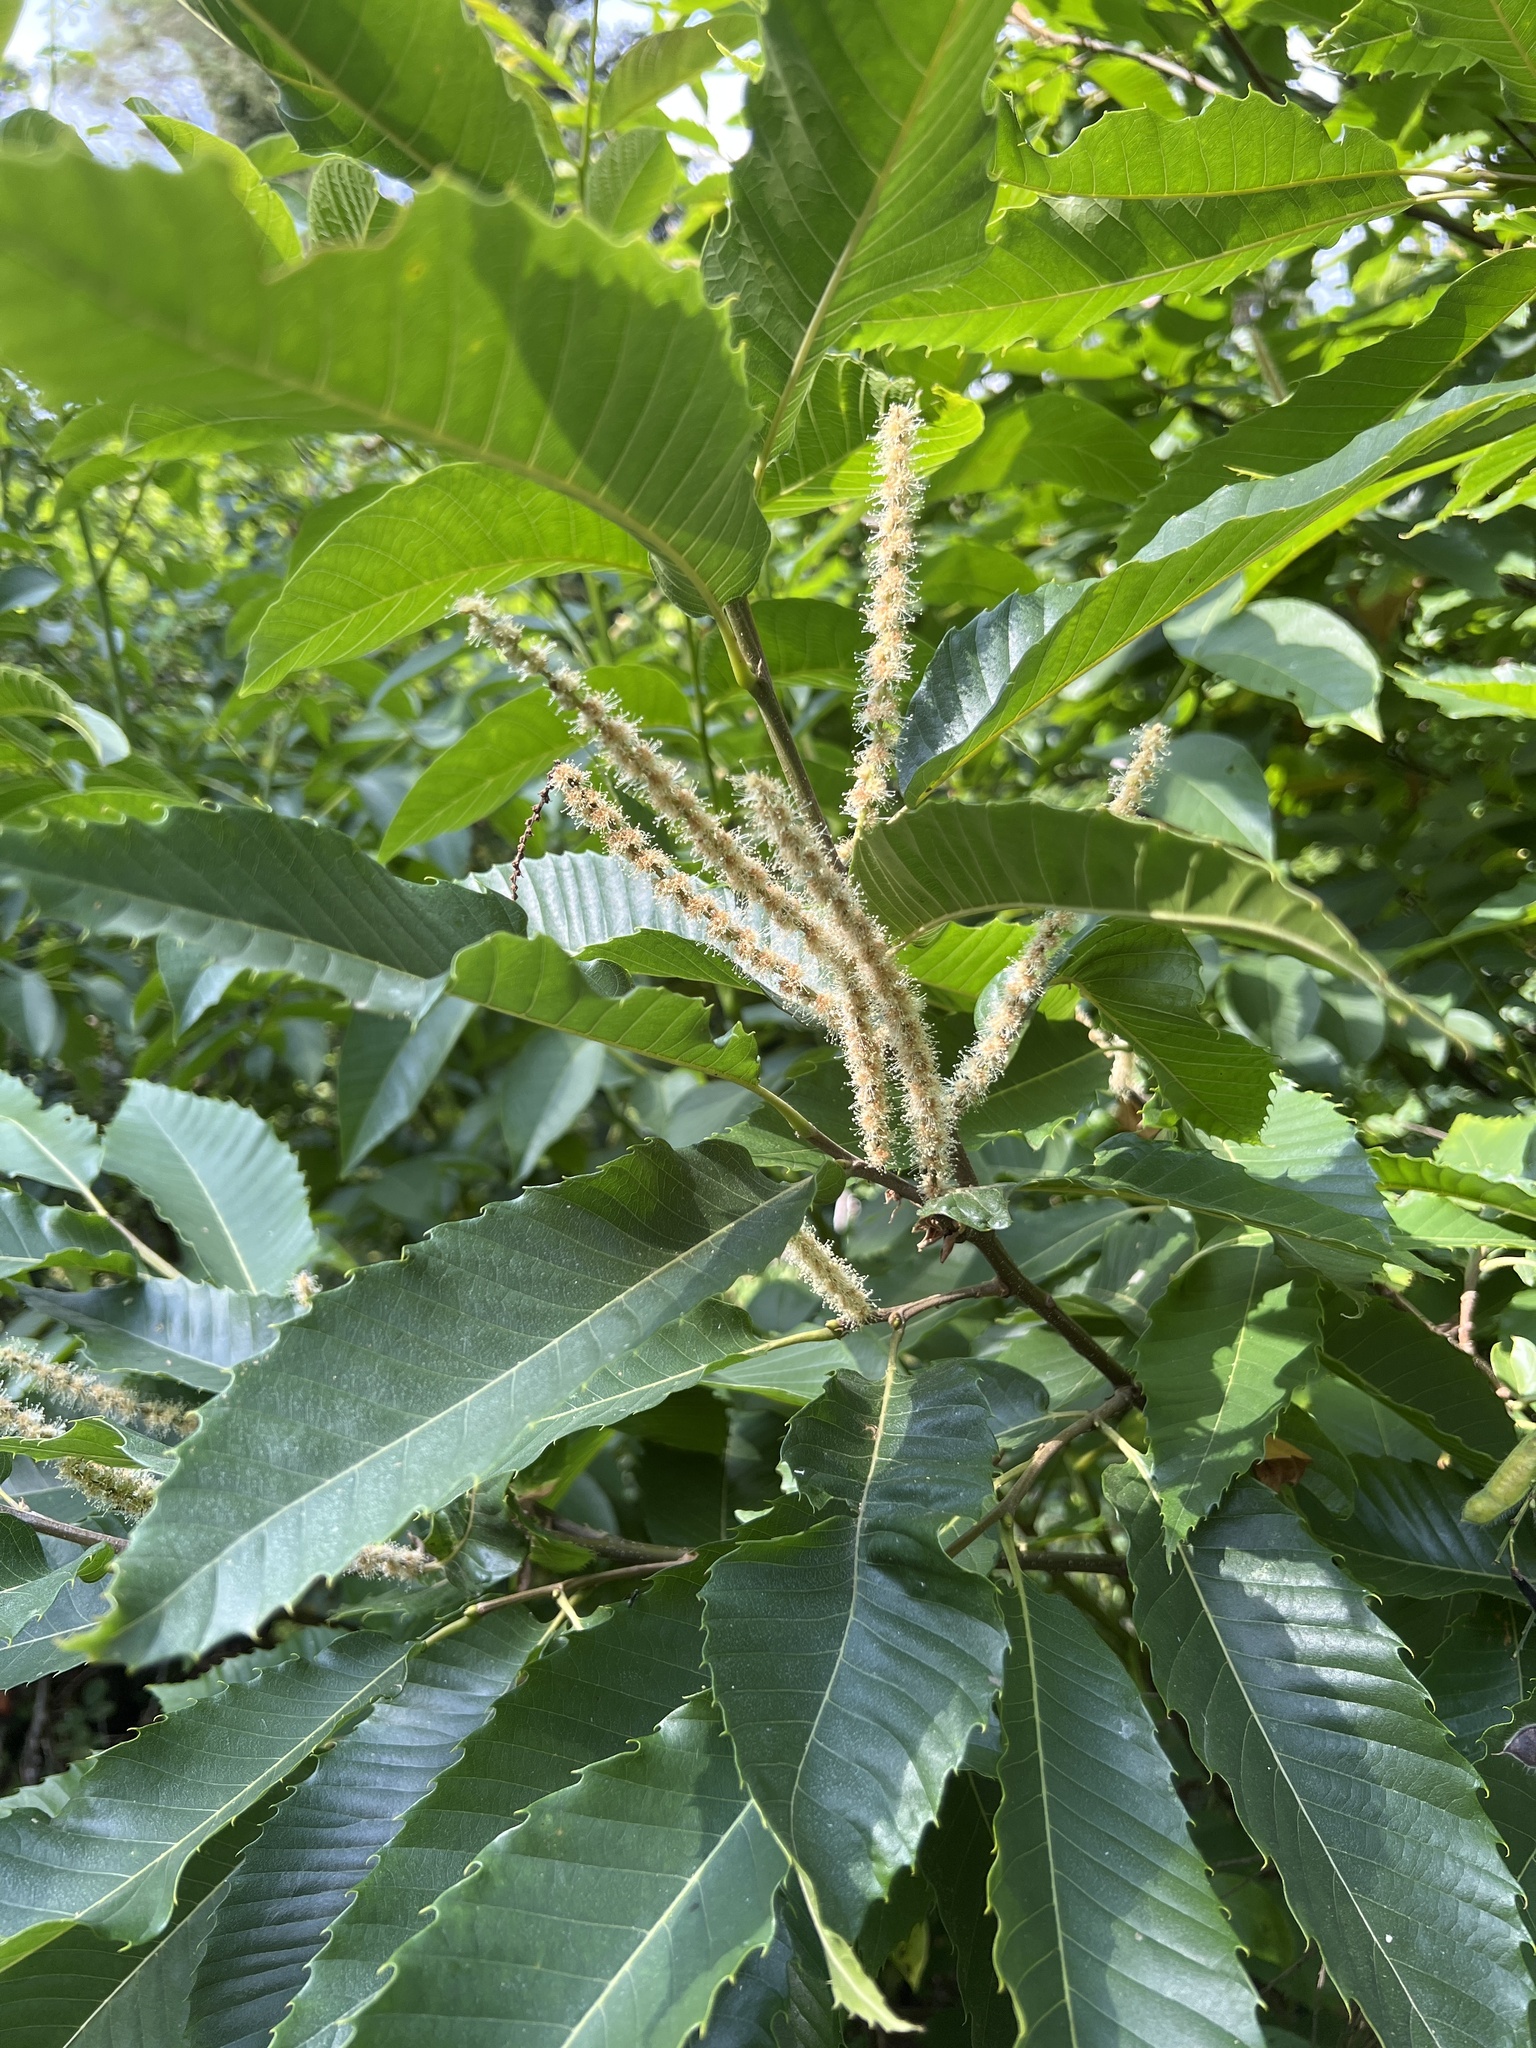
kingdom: Plantae
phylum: Tracheophyta
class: Magnoliopsida
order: Fagales
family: Fagaceae
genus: Castanea
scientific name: Castanea sativa
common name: Sweet chestnut
